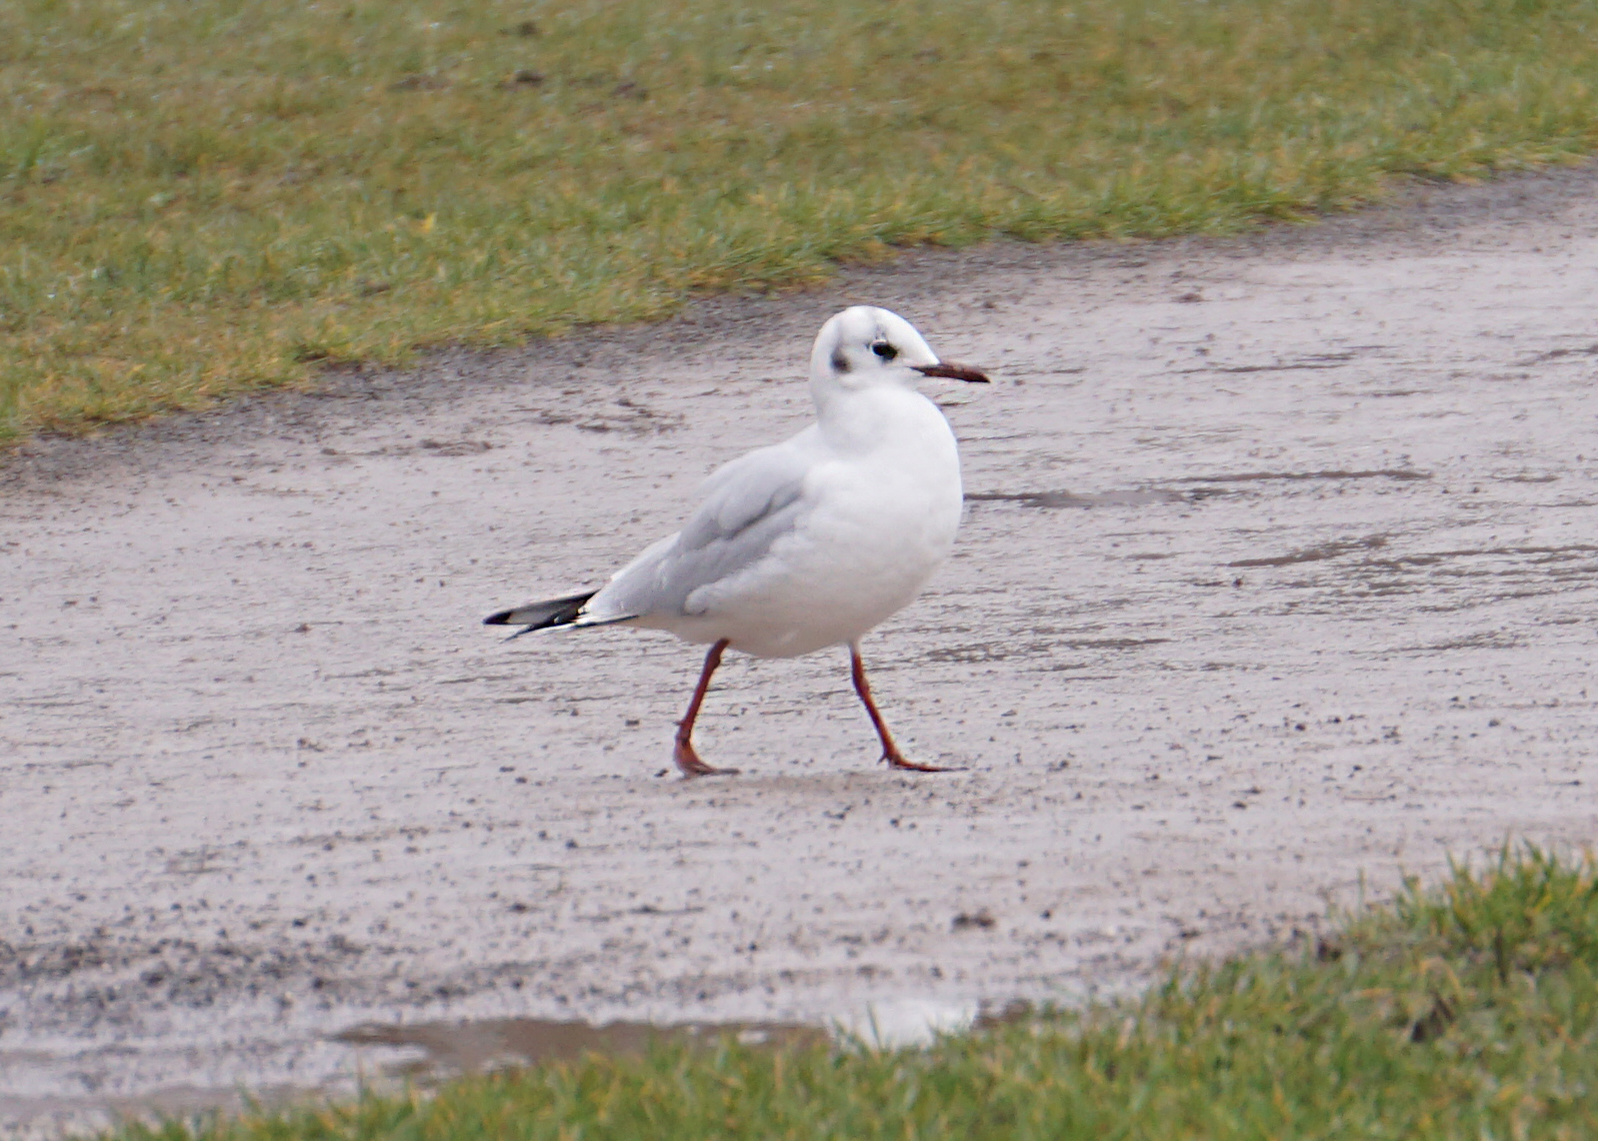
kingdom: Animalia
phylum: Chordata
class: Aves
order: Charadriiformes
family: Laridae
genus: Chroicocephalus
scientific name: Chroicocephalus ridibundus
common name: Black-headed gull
